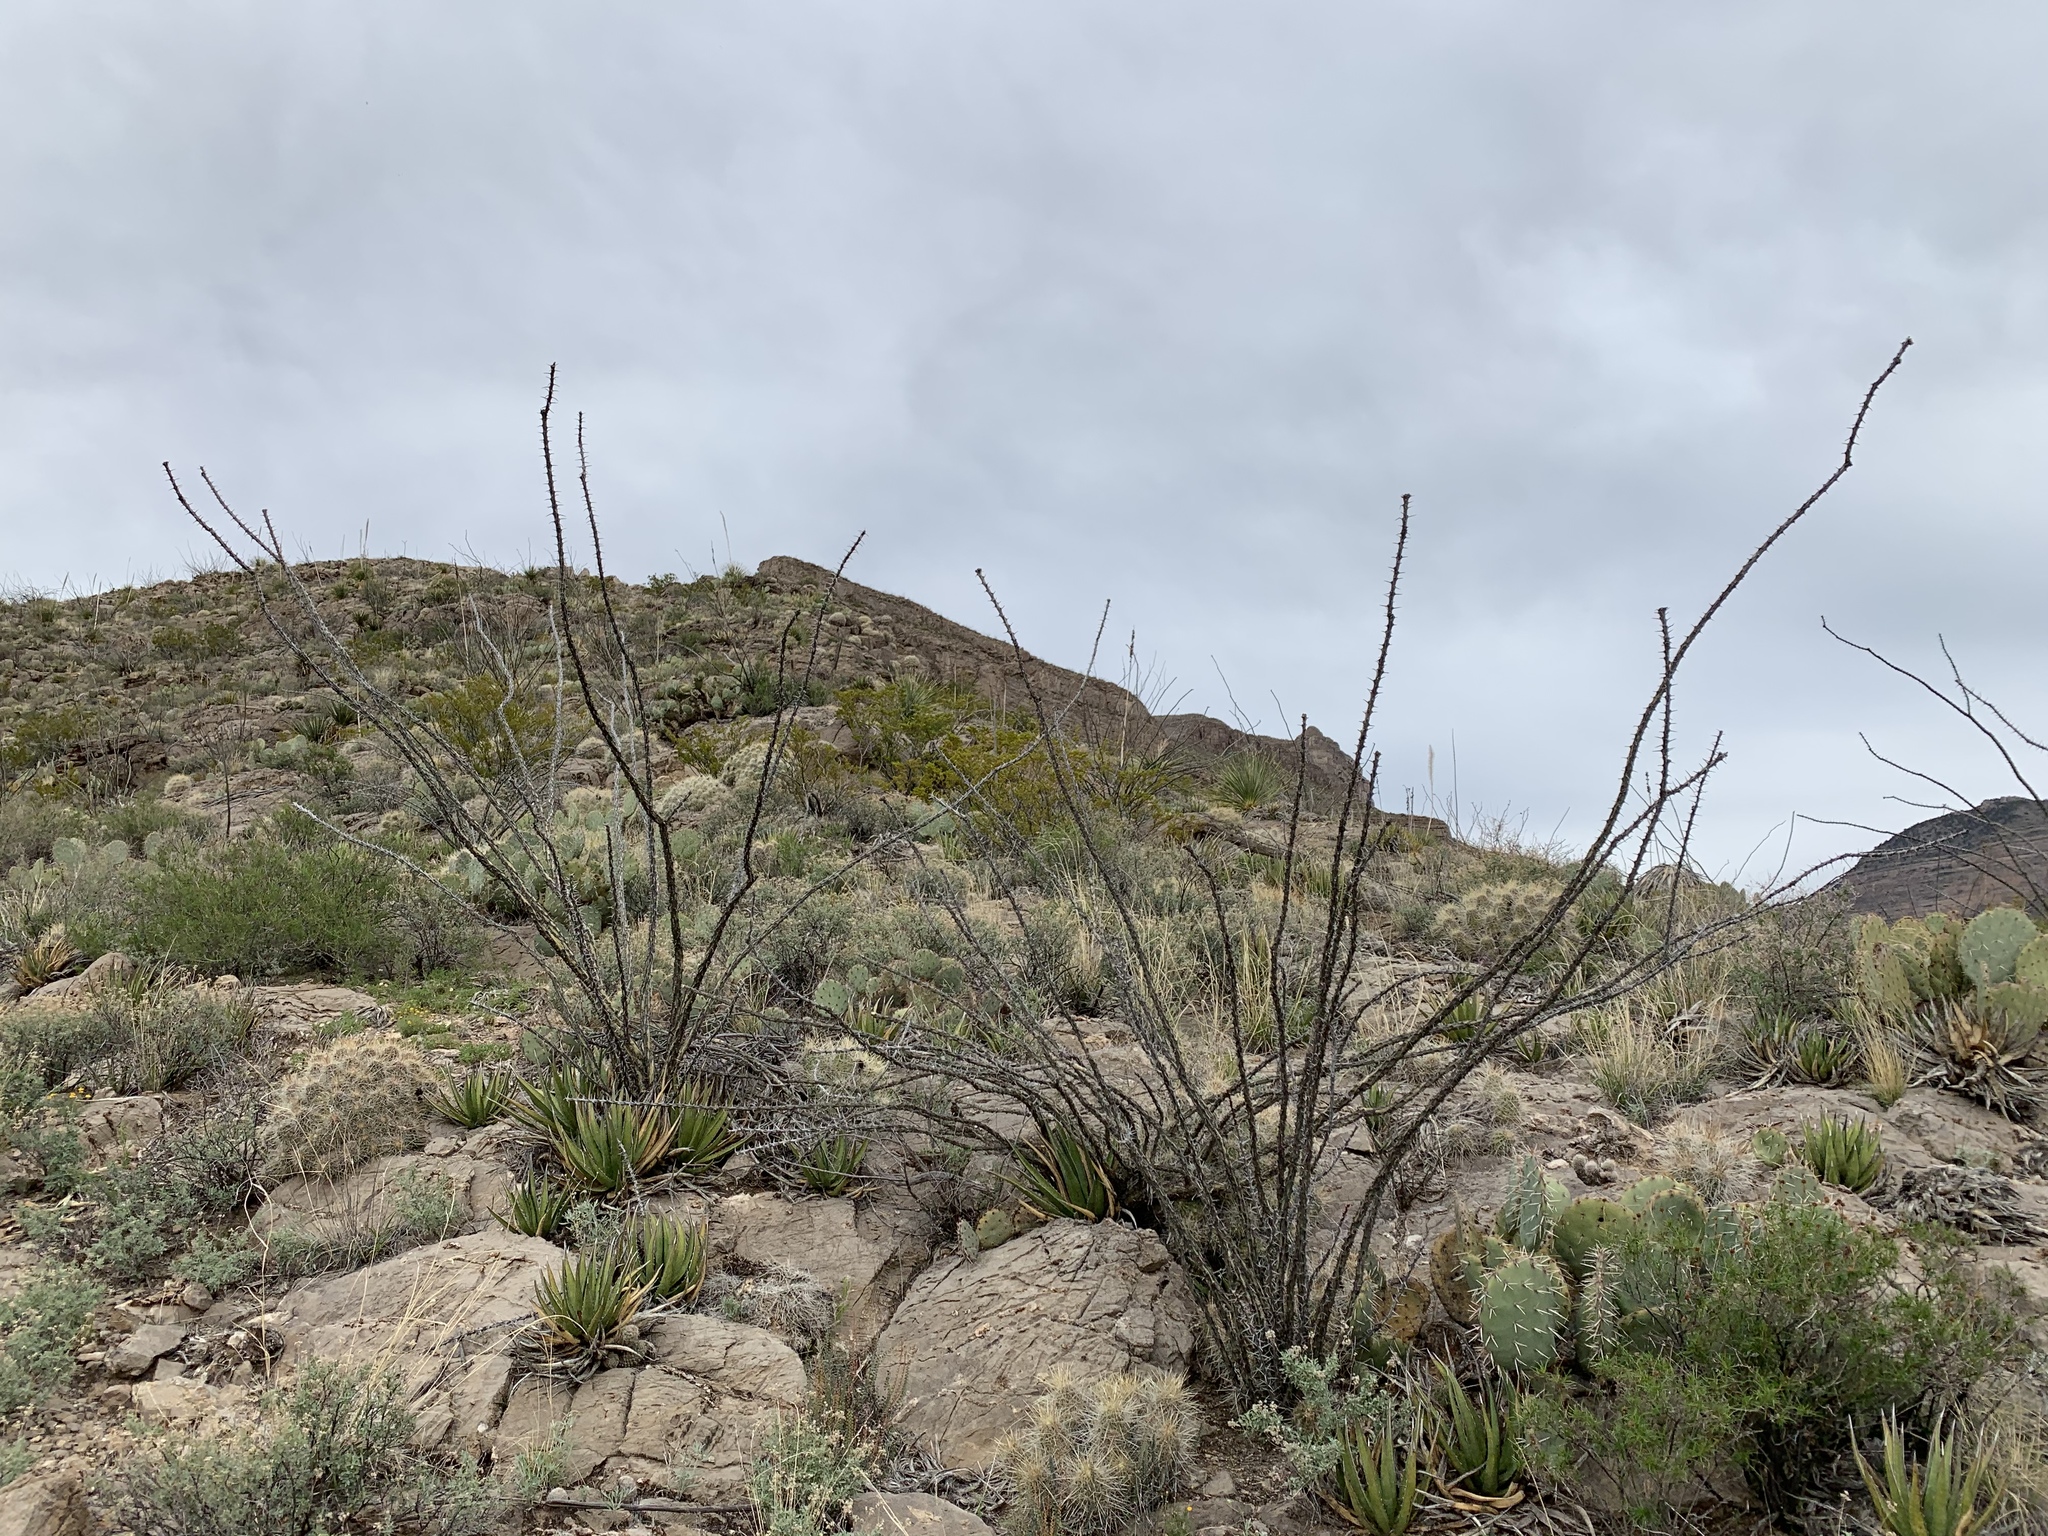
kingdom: Plantae
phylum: Tracheophyta
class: Magnoliopsida
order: Ericales
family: Fouquieriaceae
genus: Fouquieria
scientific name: Fouquieria splendens
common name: Vine-cactus
